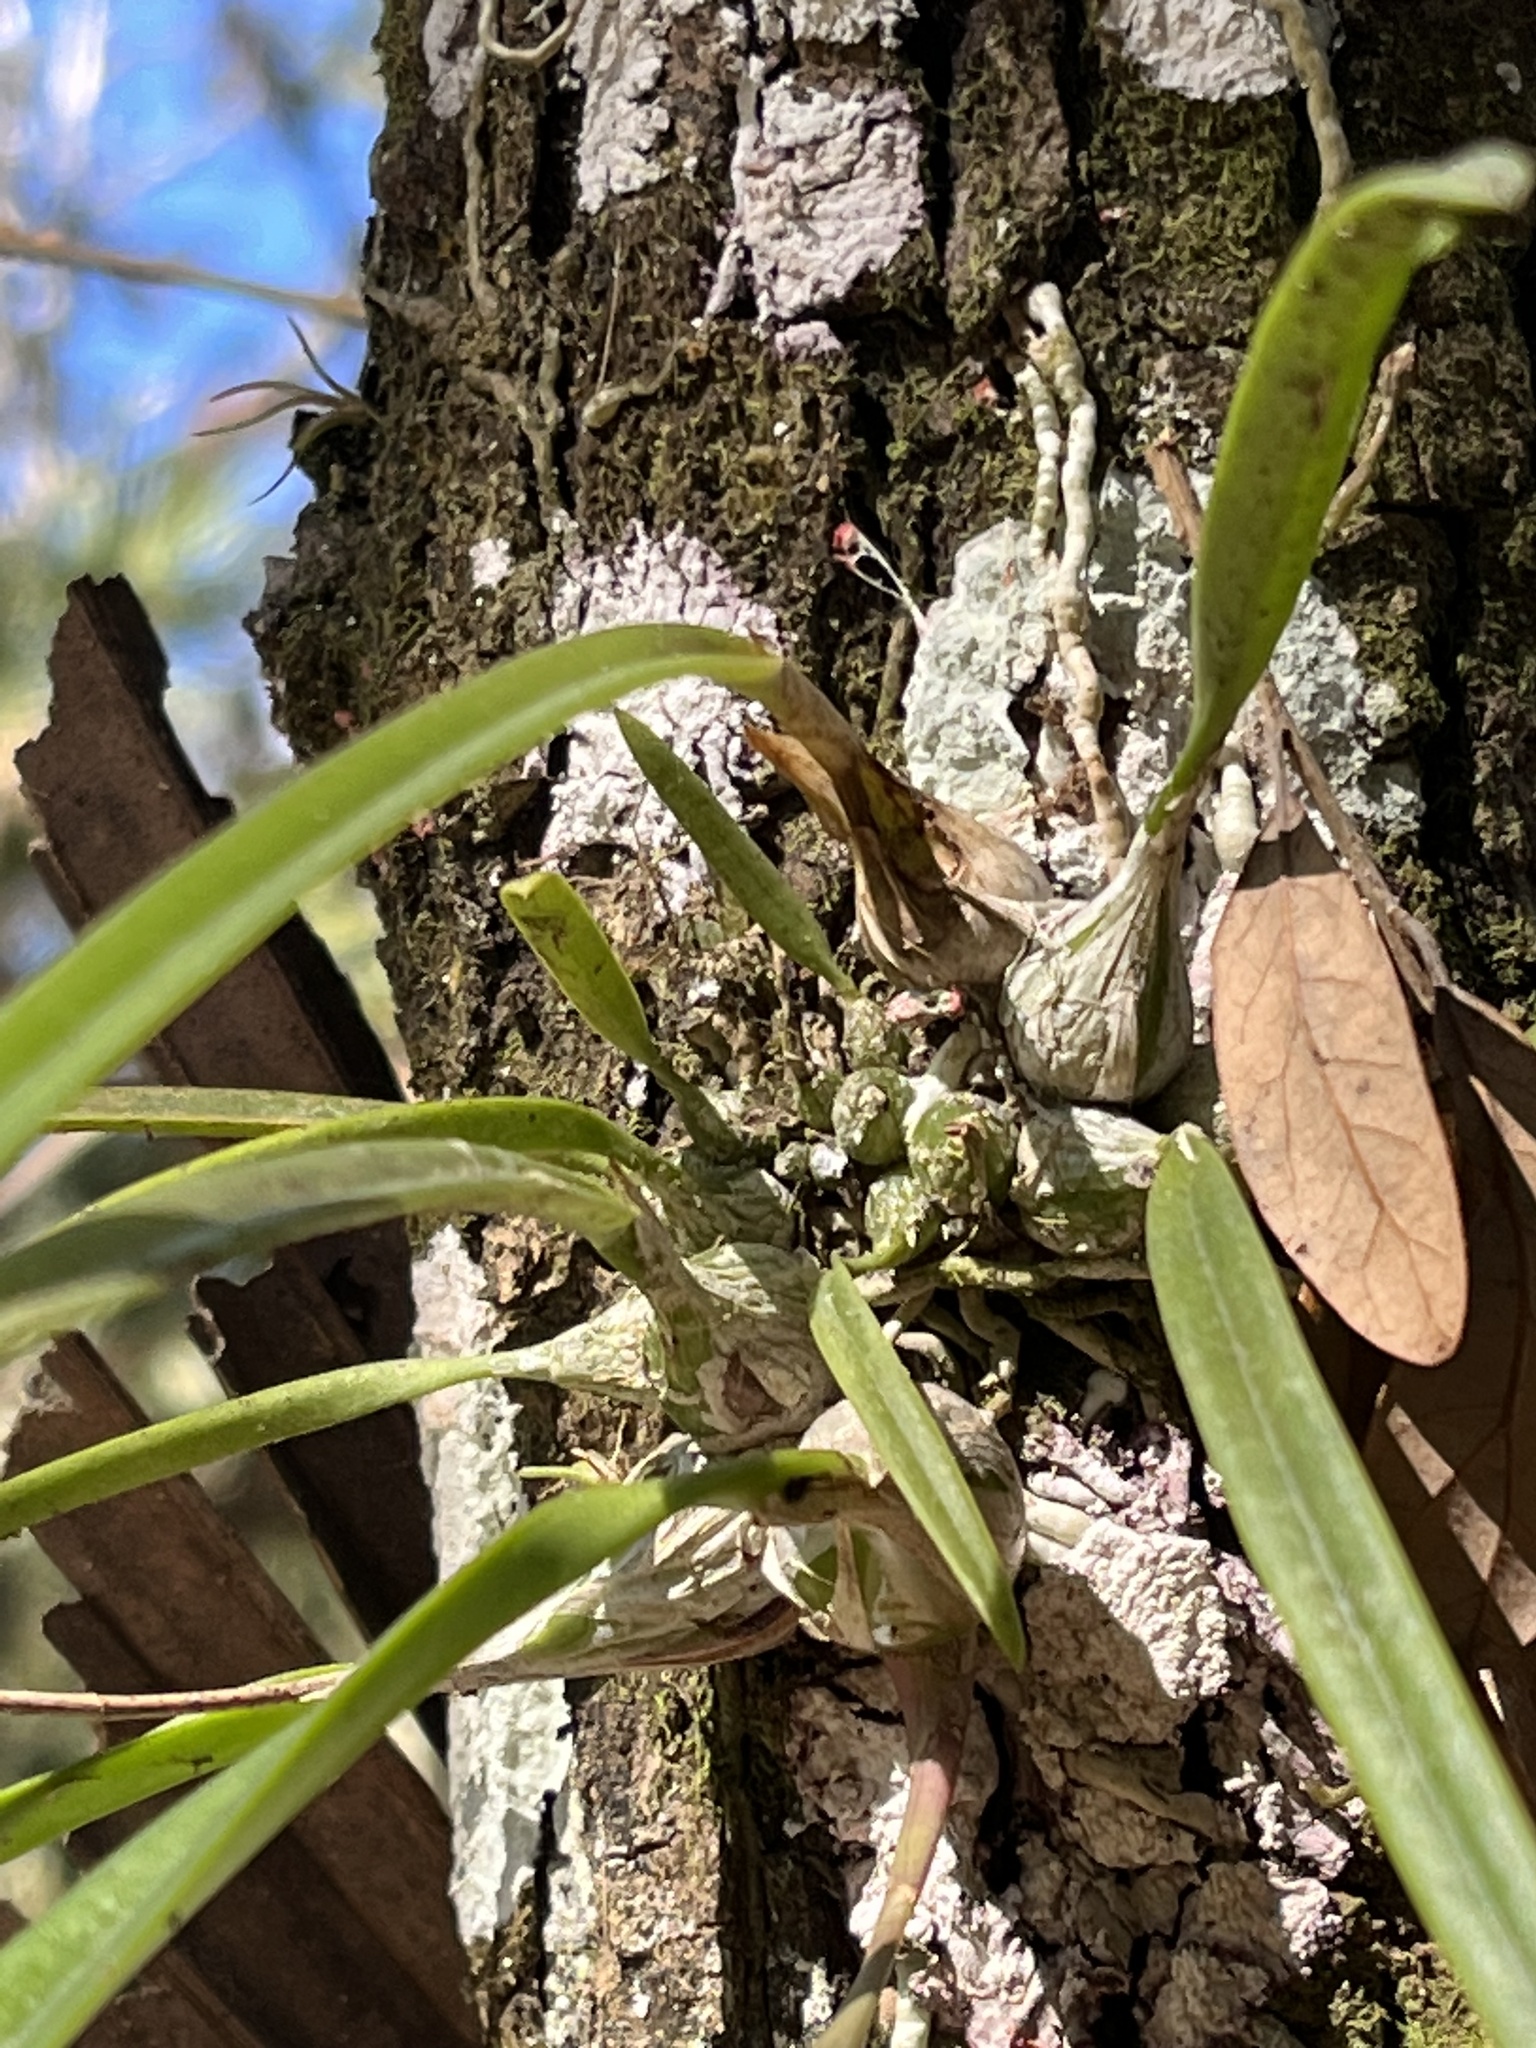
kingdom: Plantae
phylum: Tracheophyta
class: Liliopsida
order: Asparagales
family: Orchidaceae
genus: Encyclia
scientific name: Encyclia tampensis
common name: Florida butterfly orchid
